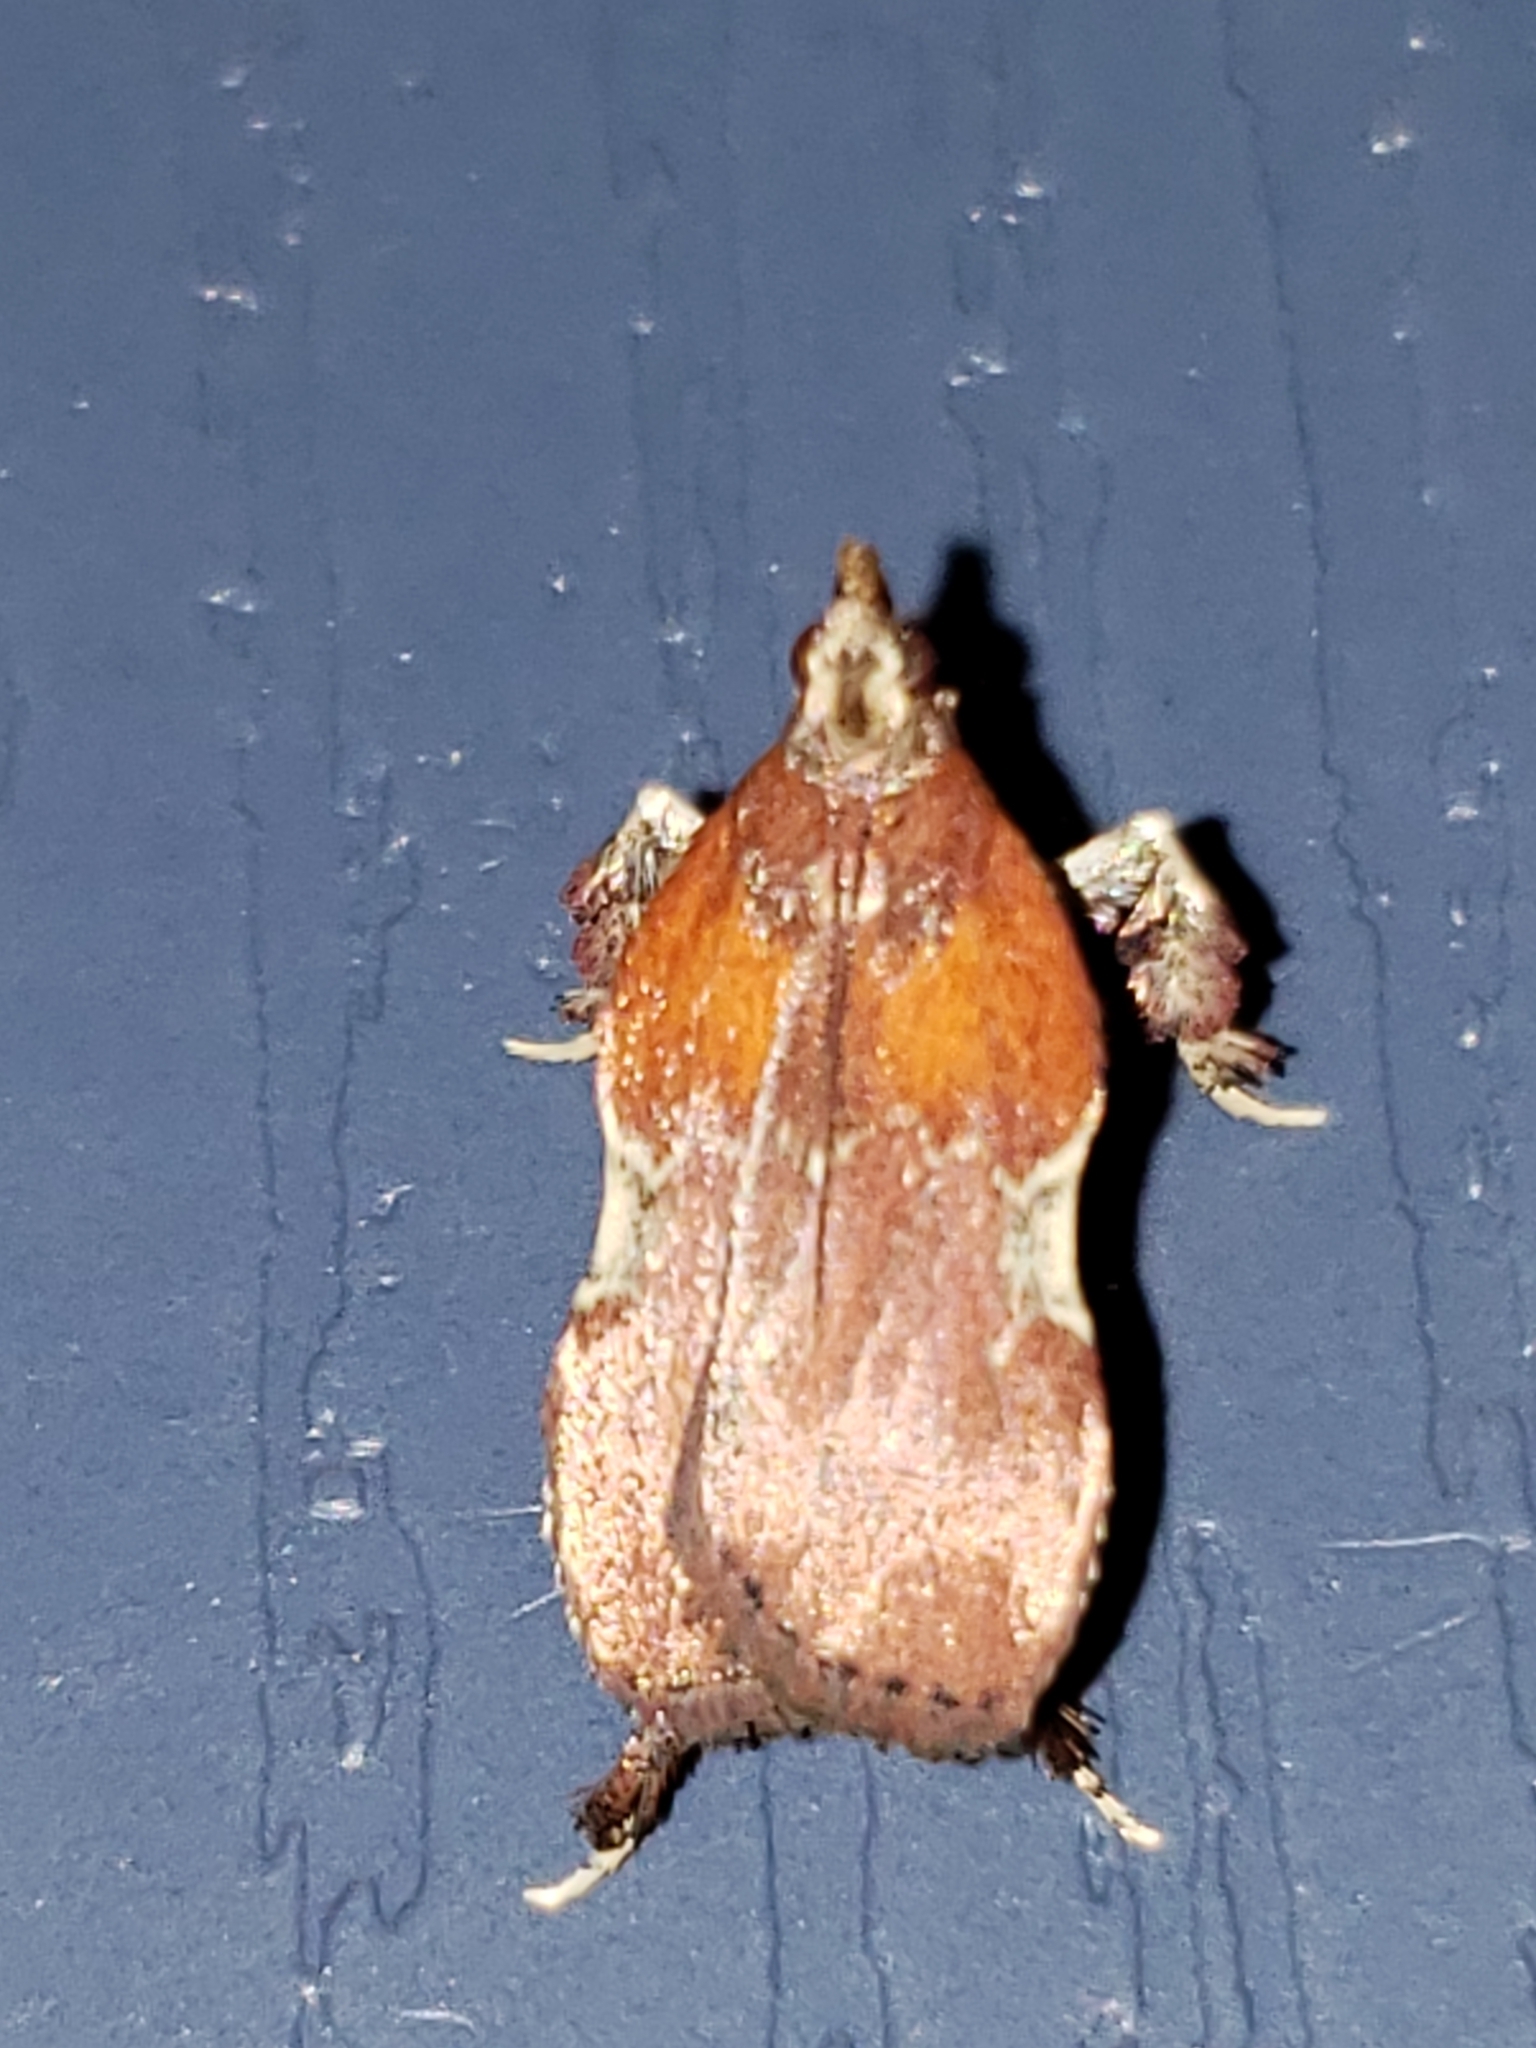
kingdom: Animalia
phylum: Arthropoda
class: Insecta
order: Lepidoptera
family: Pyralidae
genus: Galasa
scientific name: Galasa nigrinodis
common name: Boxwood leaftier moth
